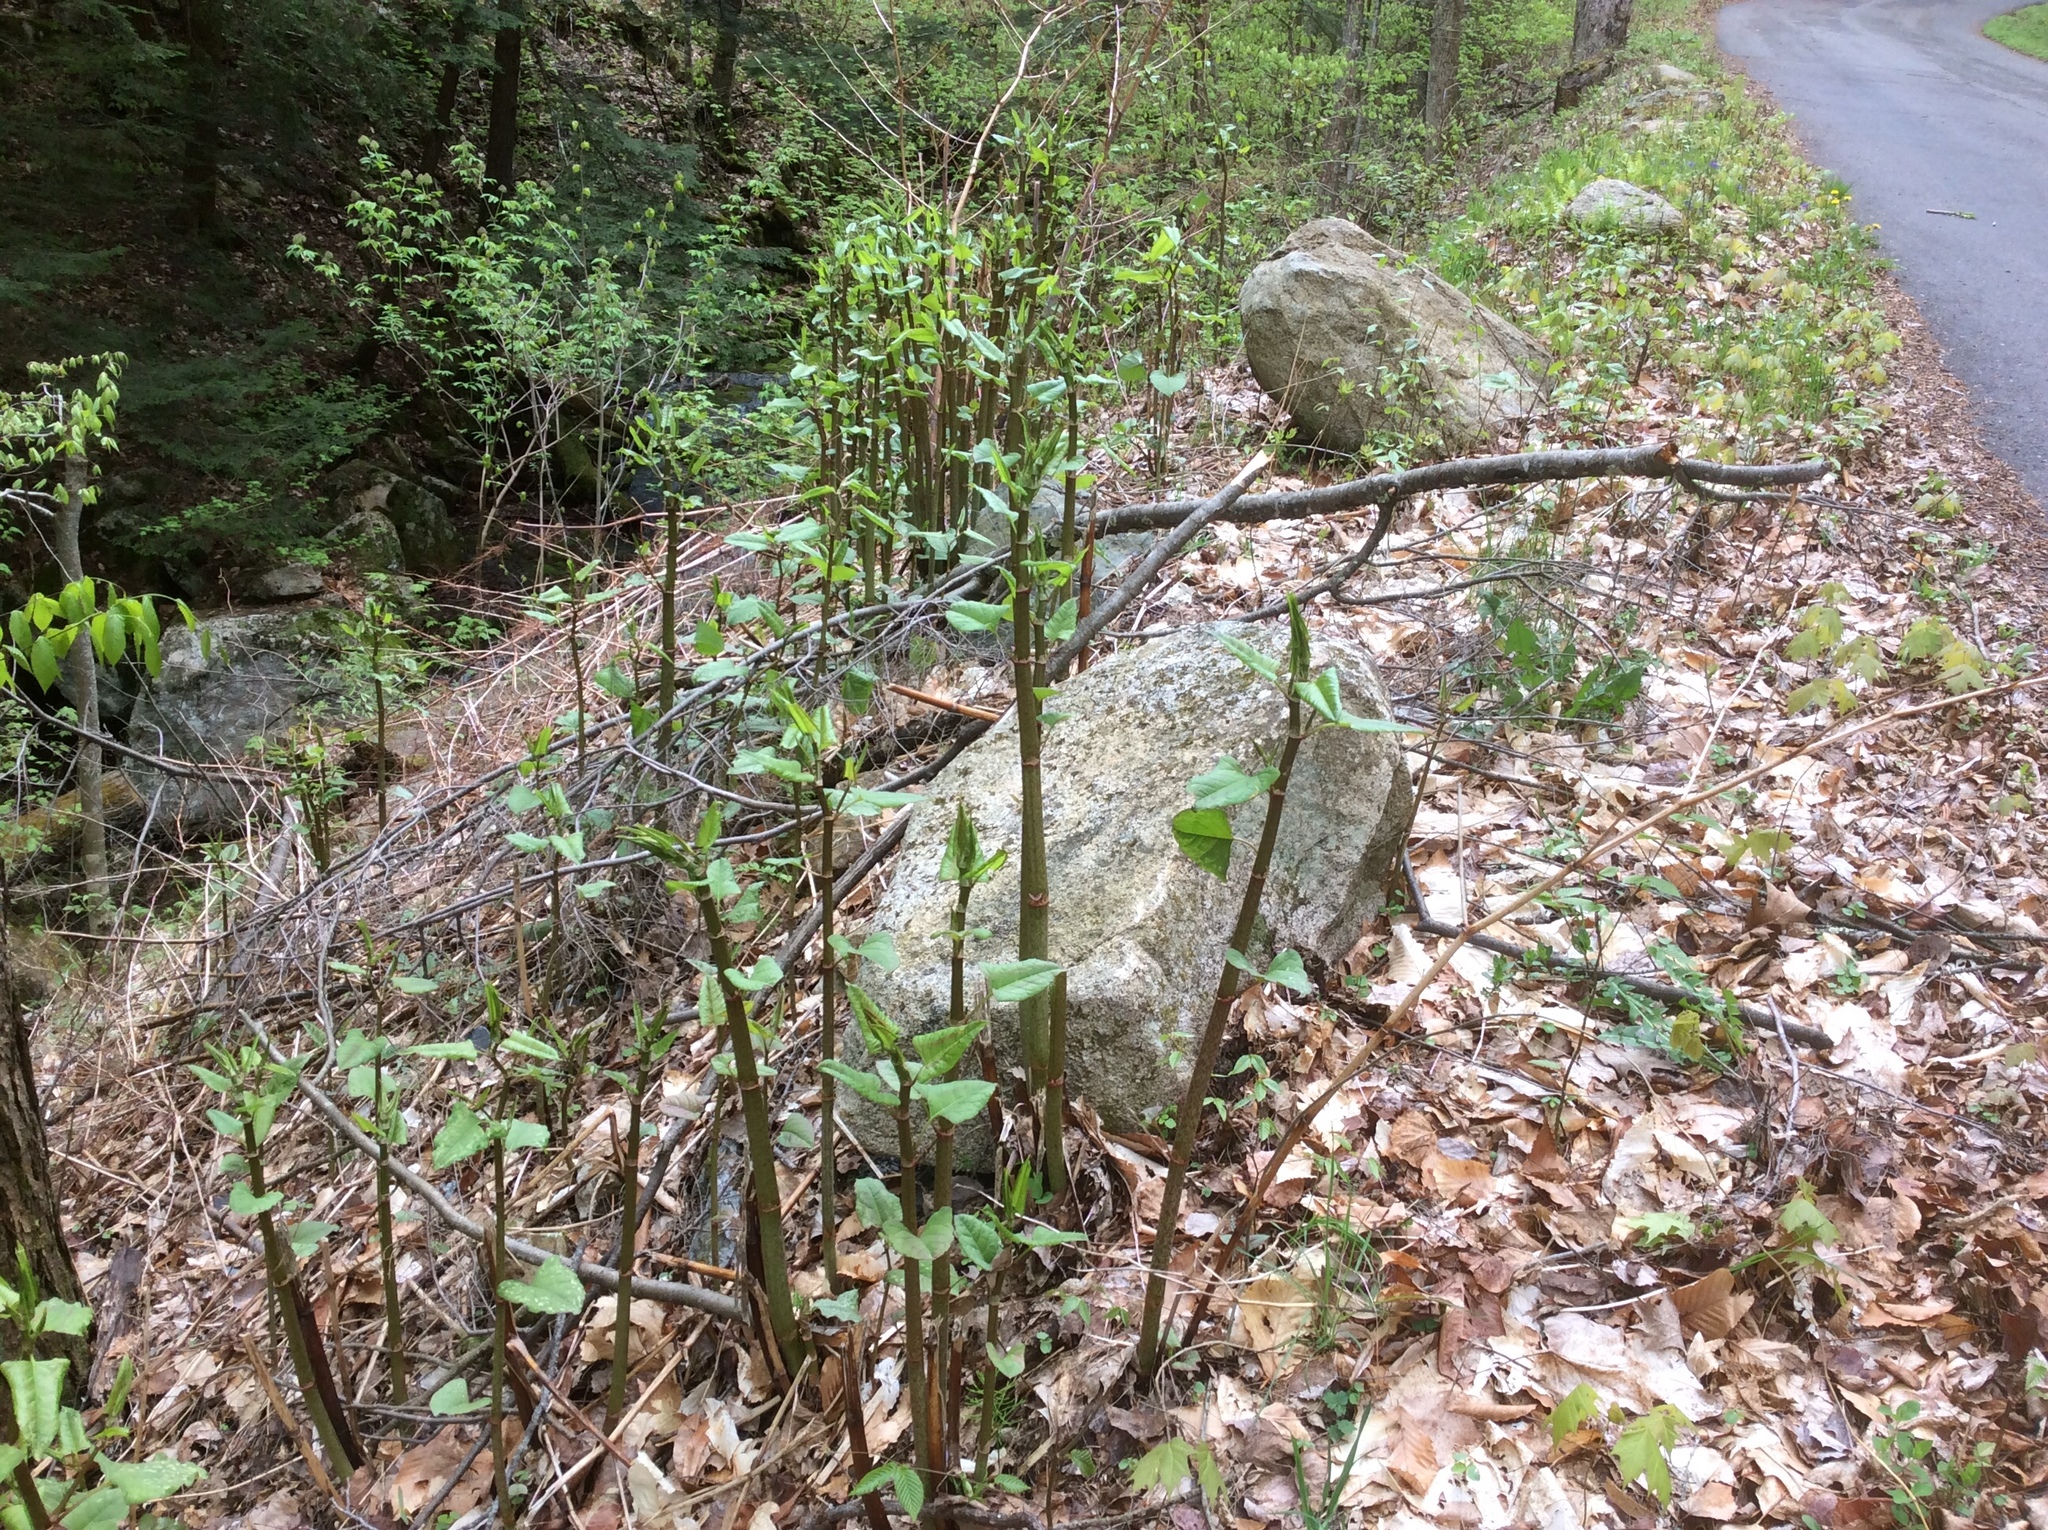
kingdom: Plantae
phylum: Tracheophyta
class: Magnoliopsida
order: Caryophyllales
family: Polygonaceae
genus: Reynoutria
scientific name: Reynoutria japonica
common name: Japanese knotweed
